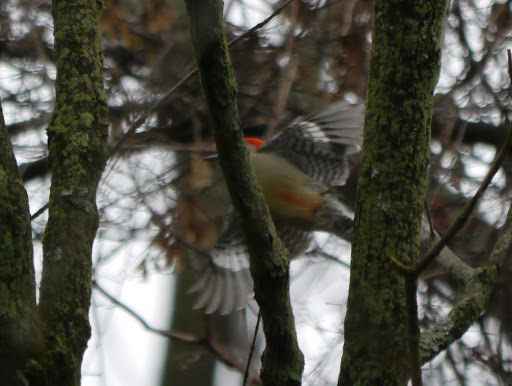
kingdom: Animalia
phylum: Chordata
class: Aves
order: Piciformes
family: Picidae
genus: Melanerpes
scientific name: Melanerpes carolinus
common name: Red-bellied woodpecker
